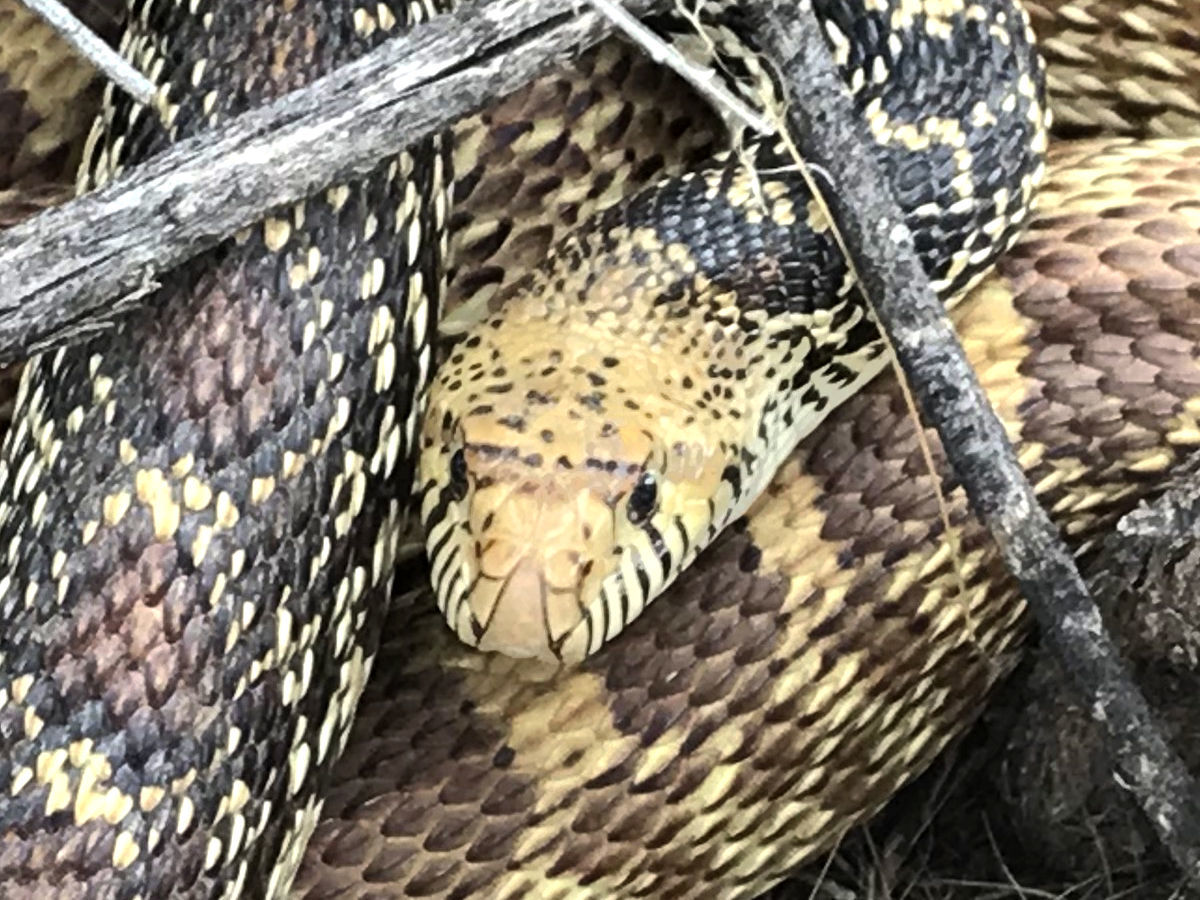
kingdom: Animalia
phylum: Chordata
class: Squamata
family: Colubridae
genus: Pituophis
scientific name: Pituophis catenifer
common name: Gopher snake
